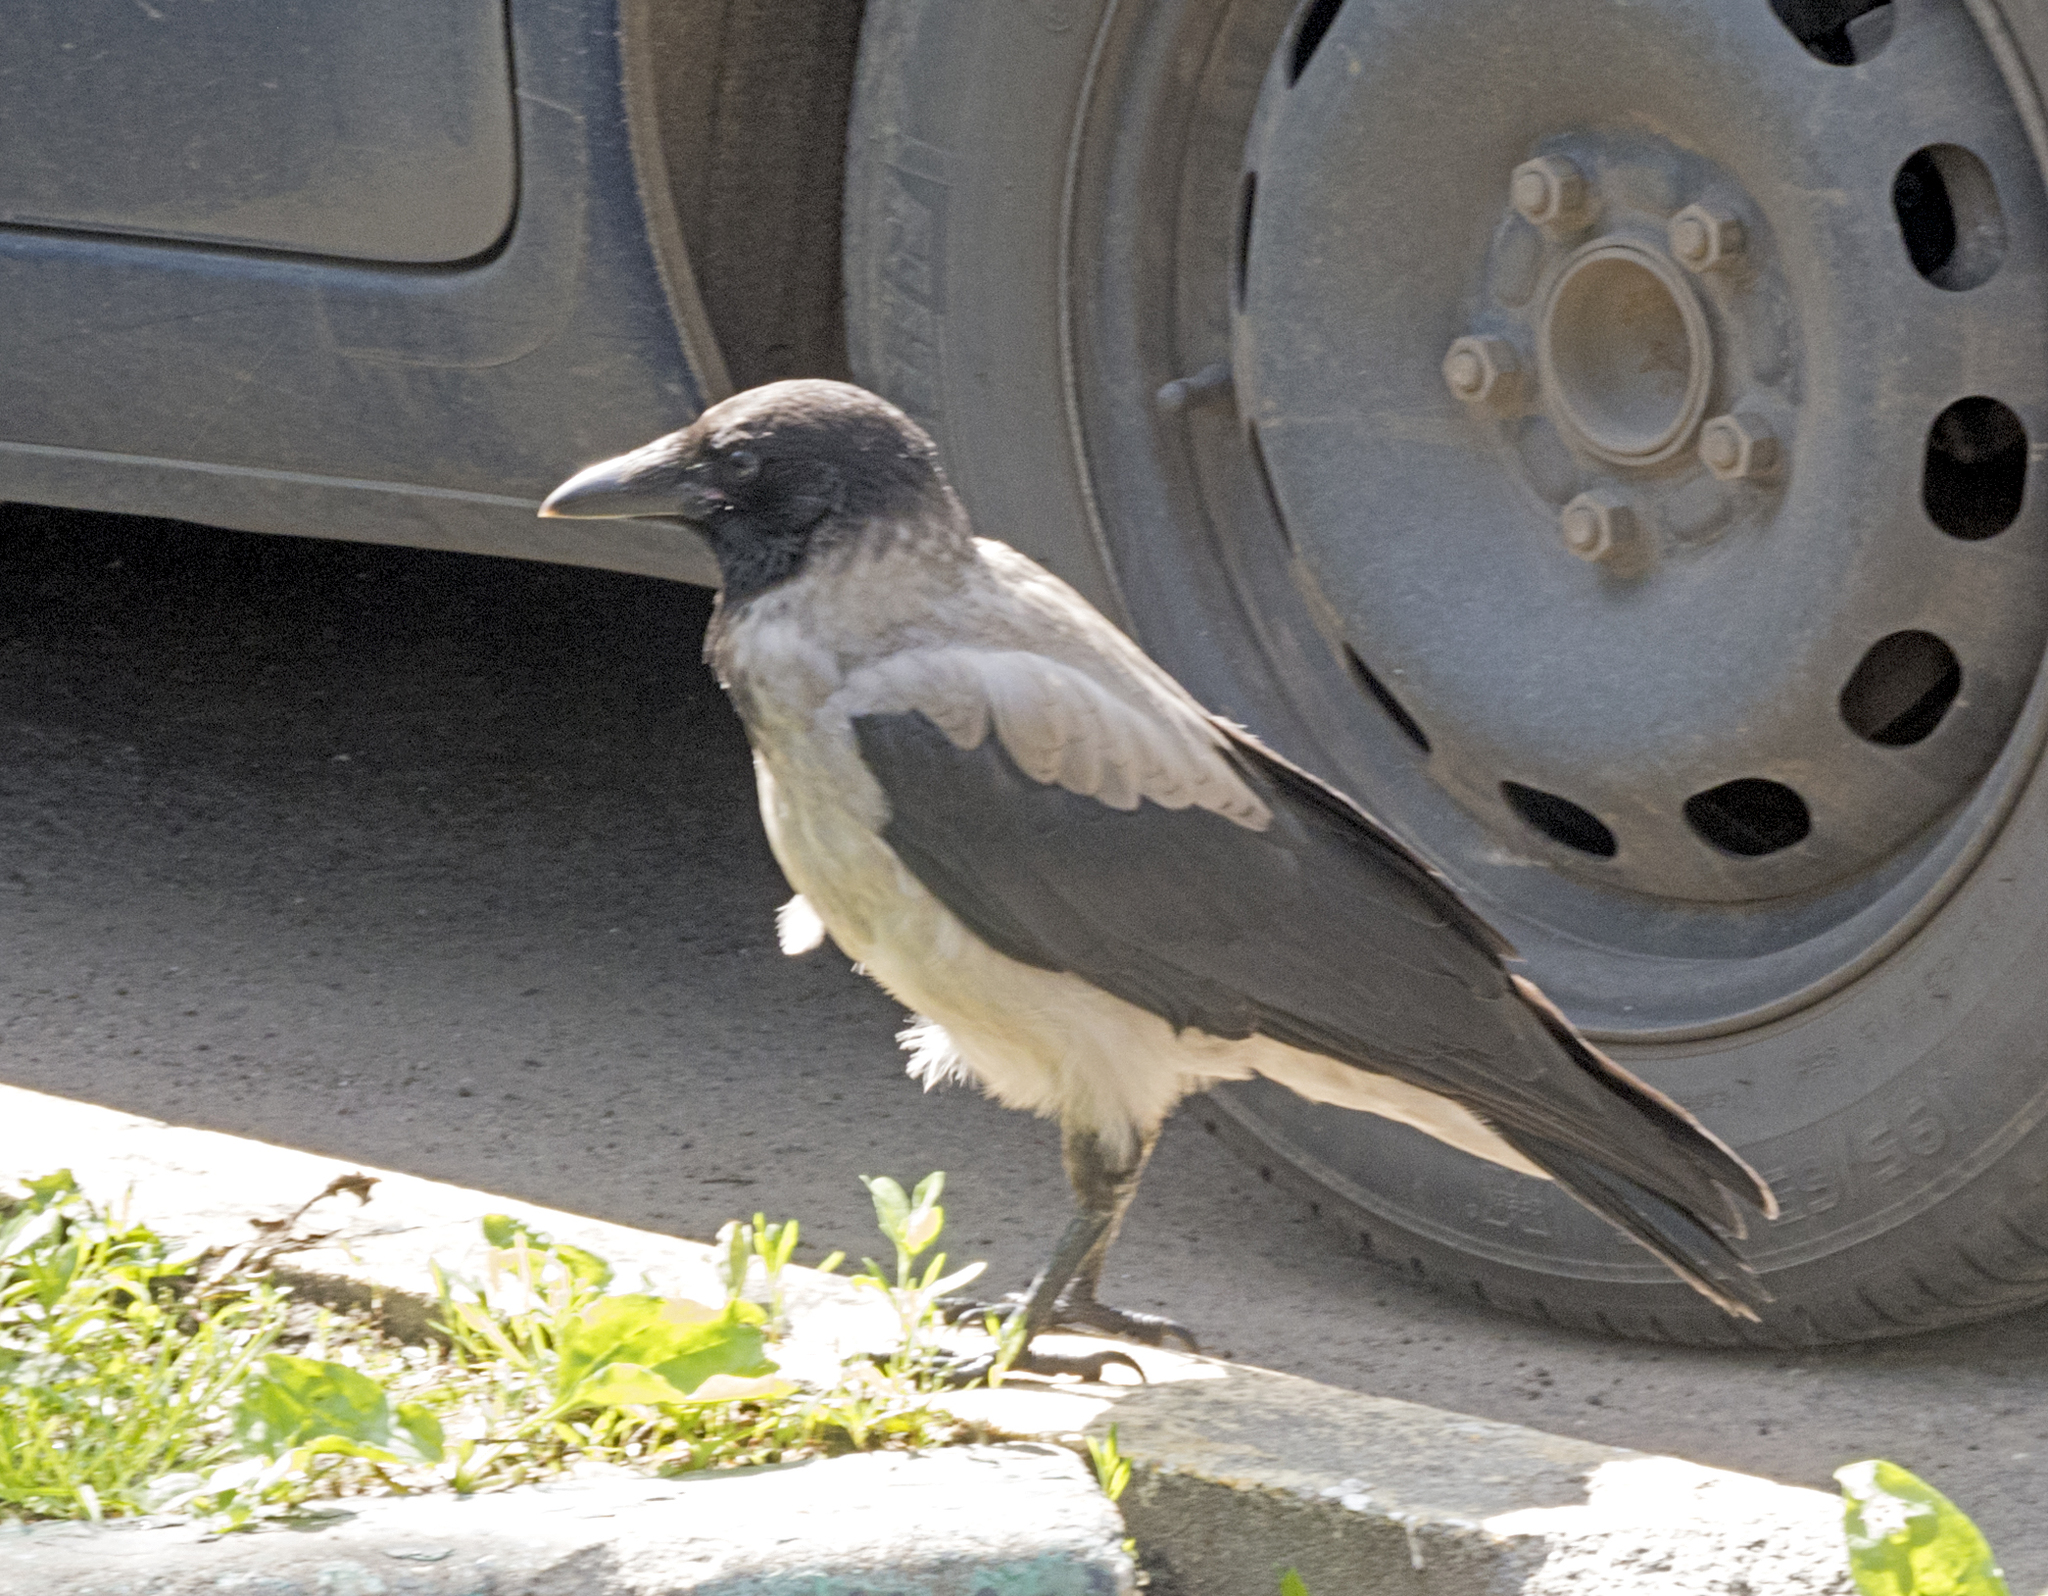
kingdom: Animalia
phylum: Chordata
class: Aves
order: Passeriformes
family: Corvidae
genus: Corvus
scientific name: Corvus cornix
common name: Hooded crow
